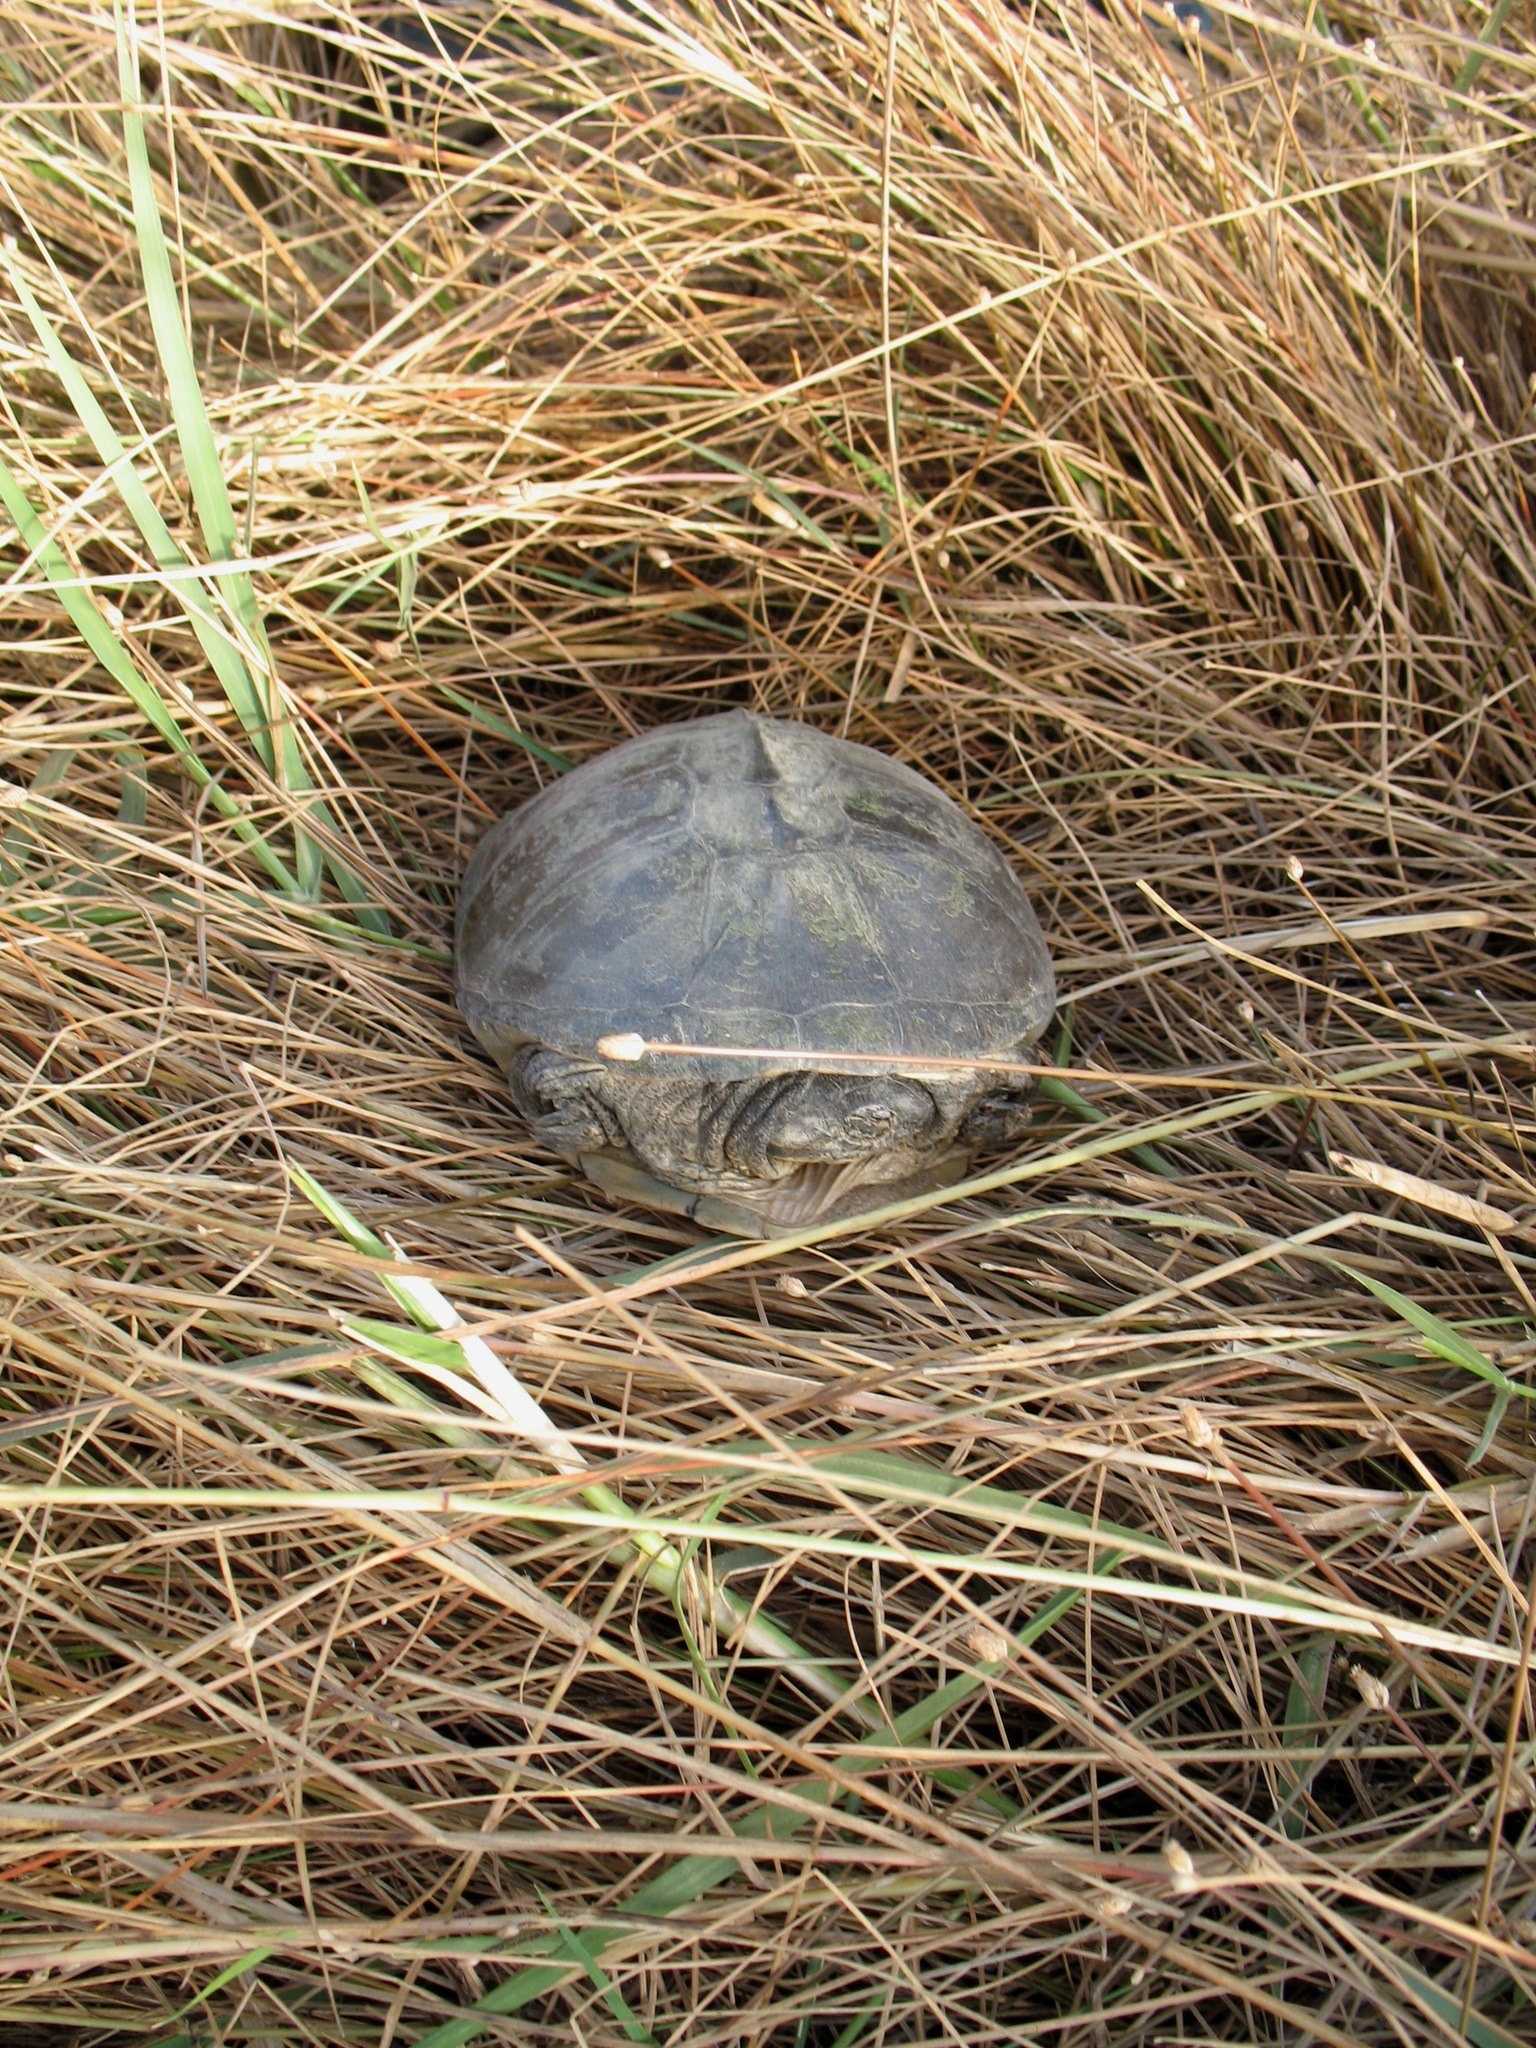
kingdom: Animalia
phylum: Chordata
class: Testudines
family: Pelomedusidae
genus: Pelusios
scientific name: Pelusios adansonii
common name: Adansons mud turtle
